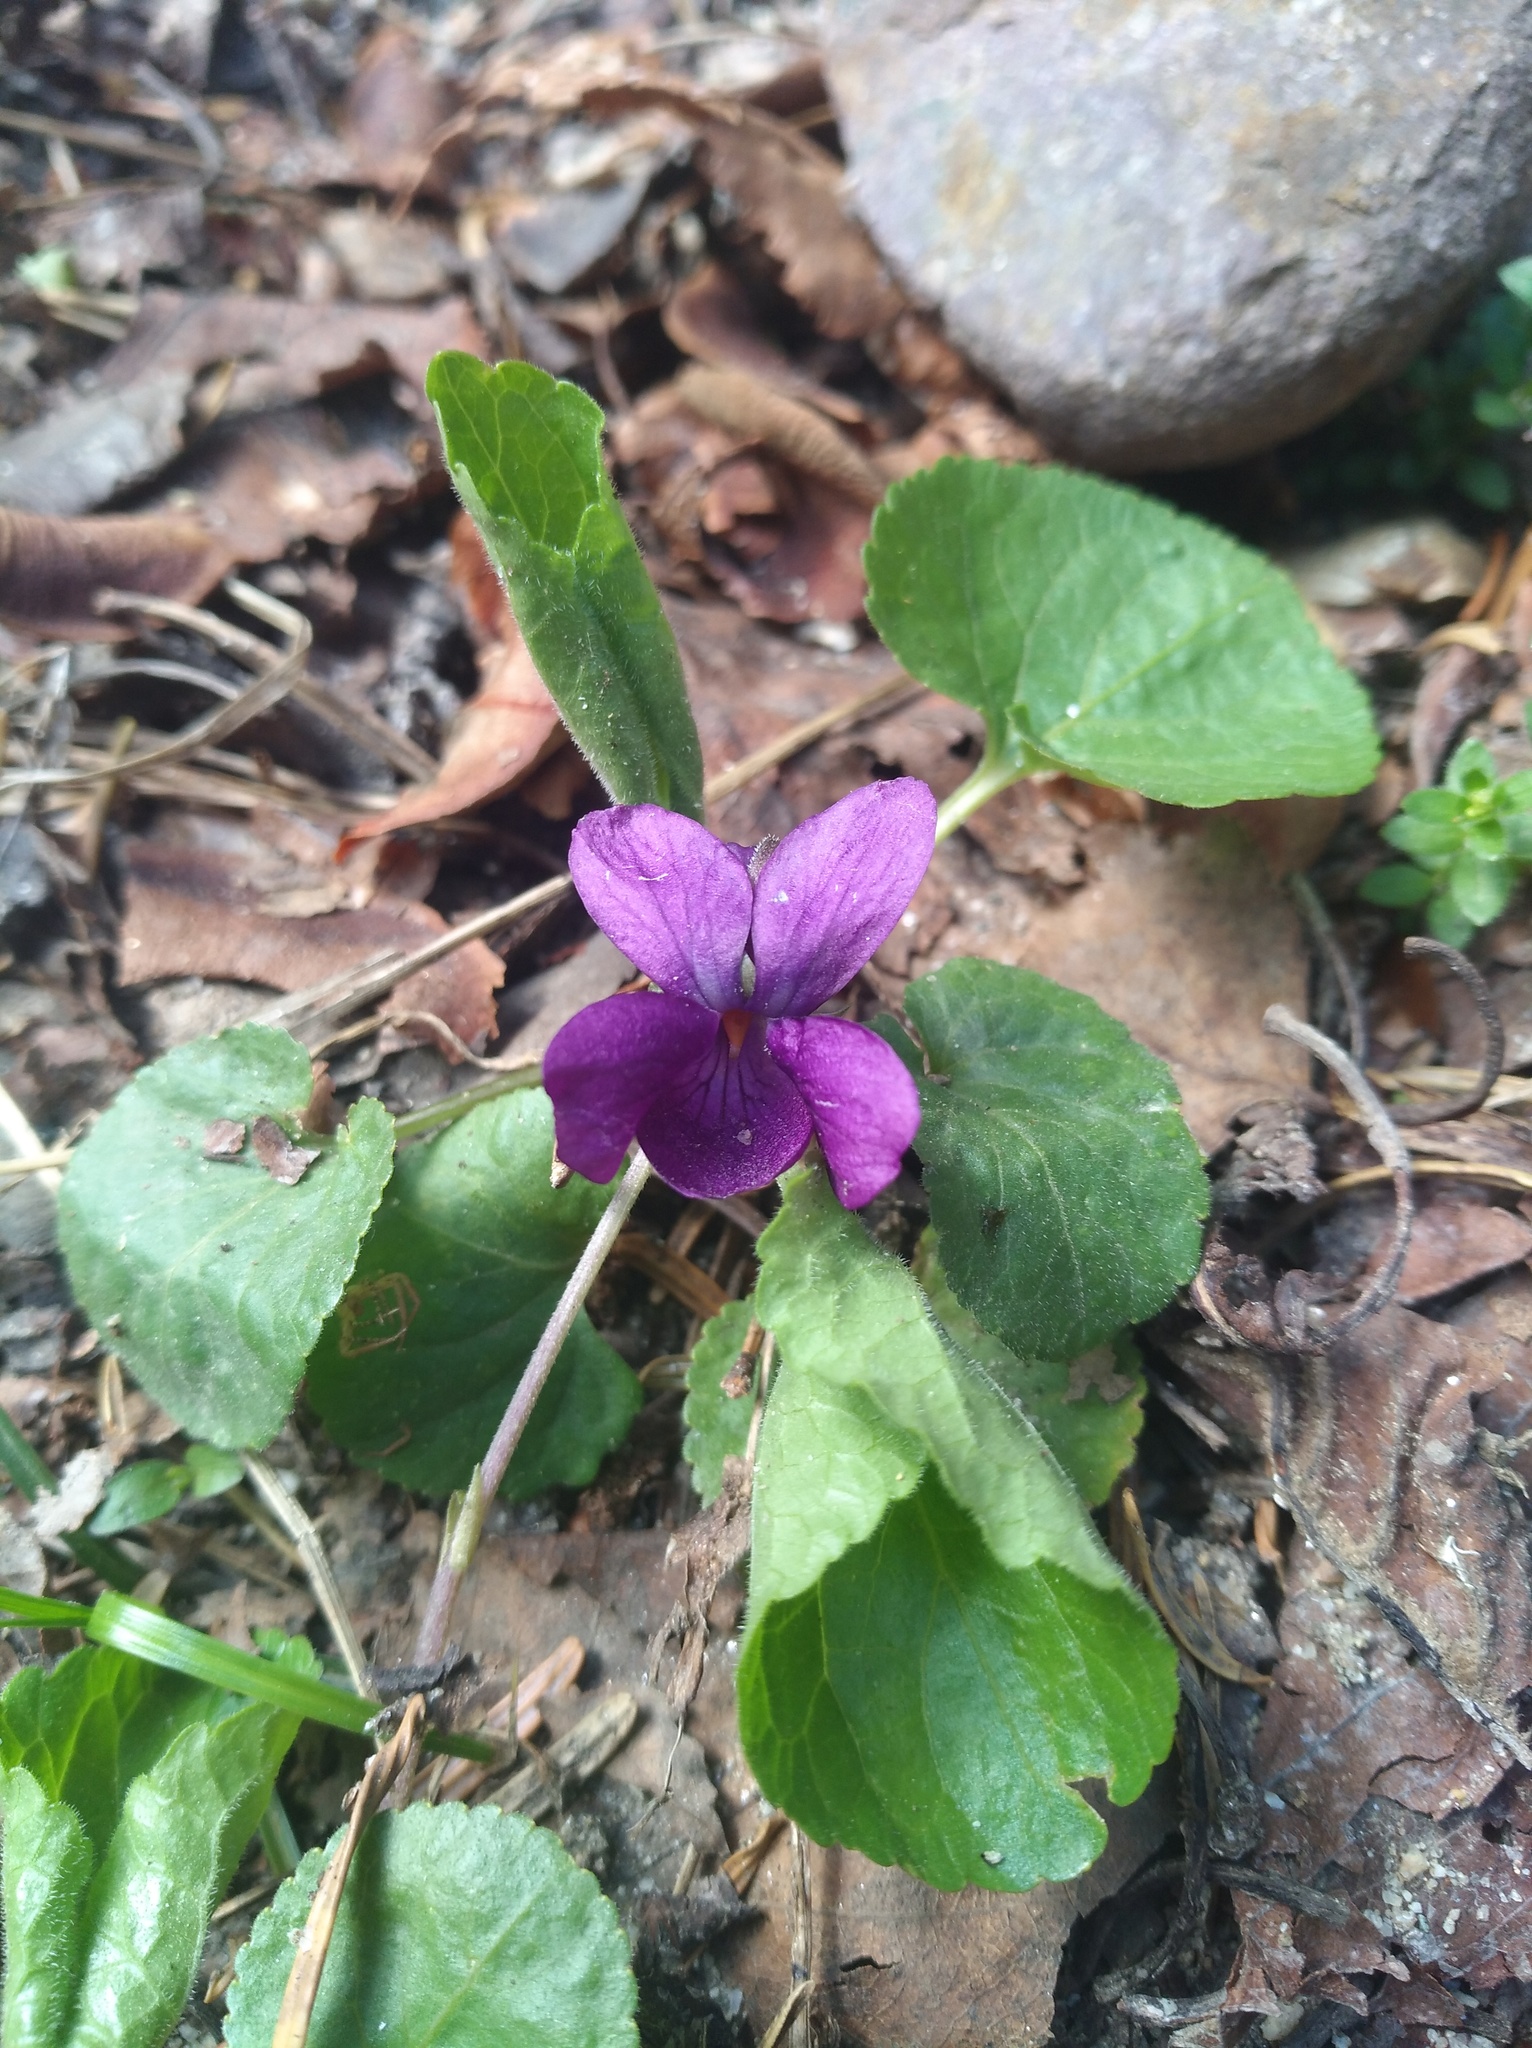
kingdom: Plantae
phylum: Tracheophyta
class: Magnoliopsida
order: Malpighiales
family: Violaceae
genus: Viola
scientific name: Viola odorata
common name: Sweet violet
